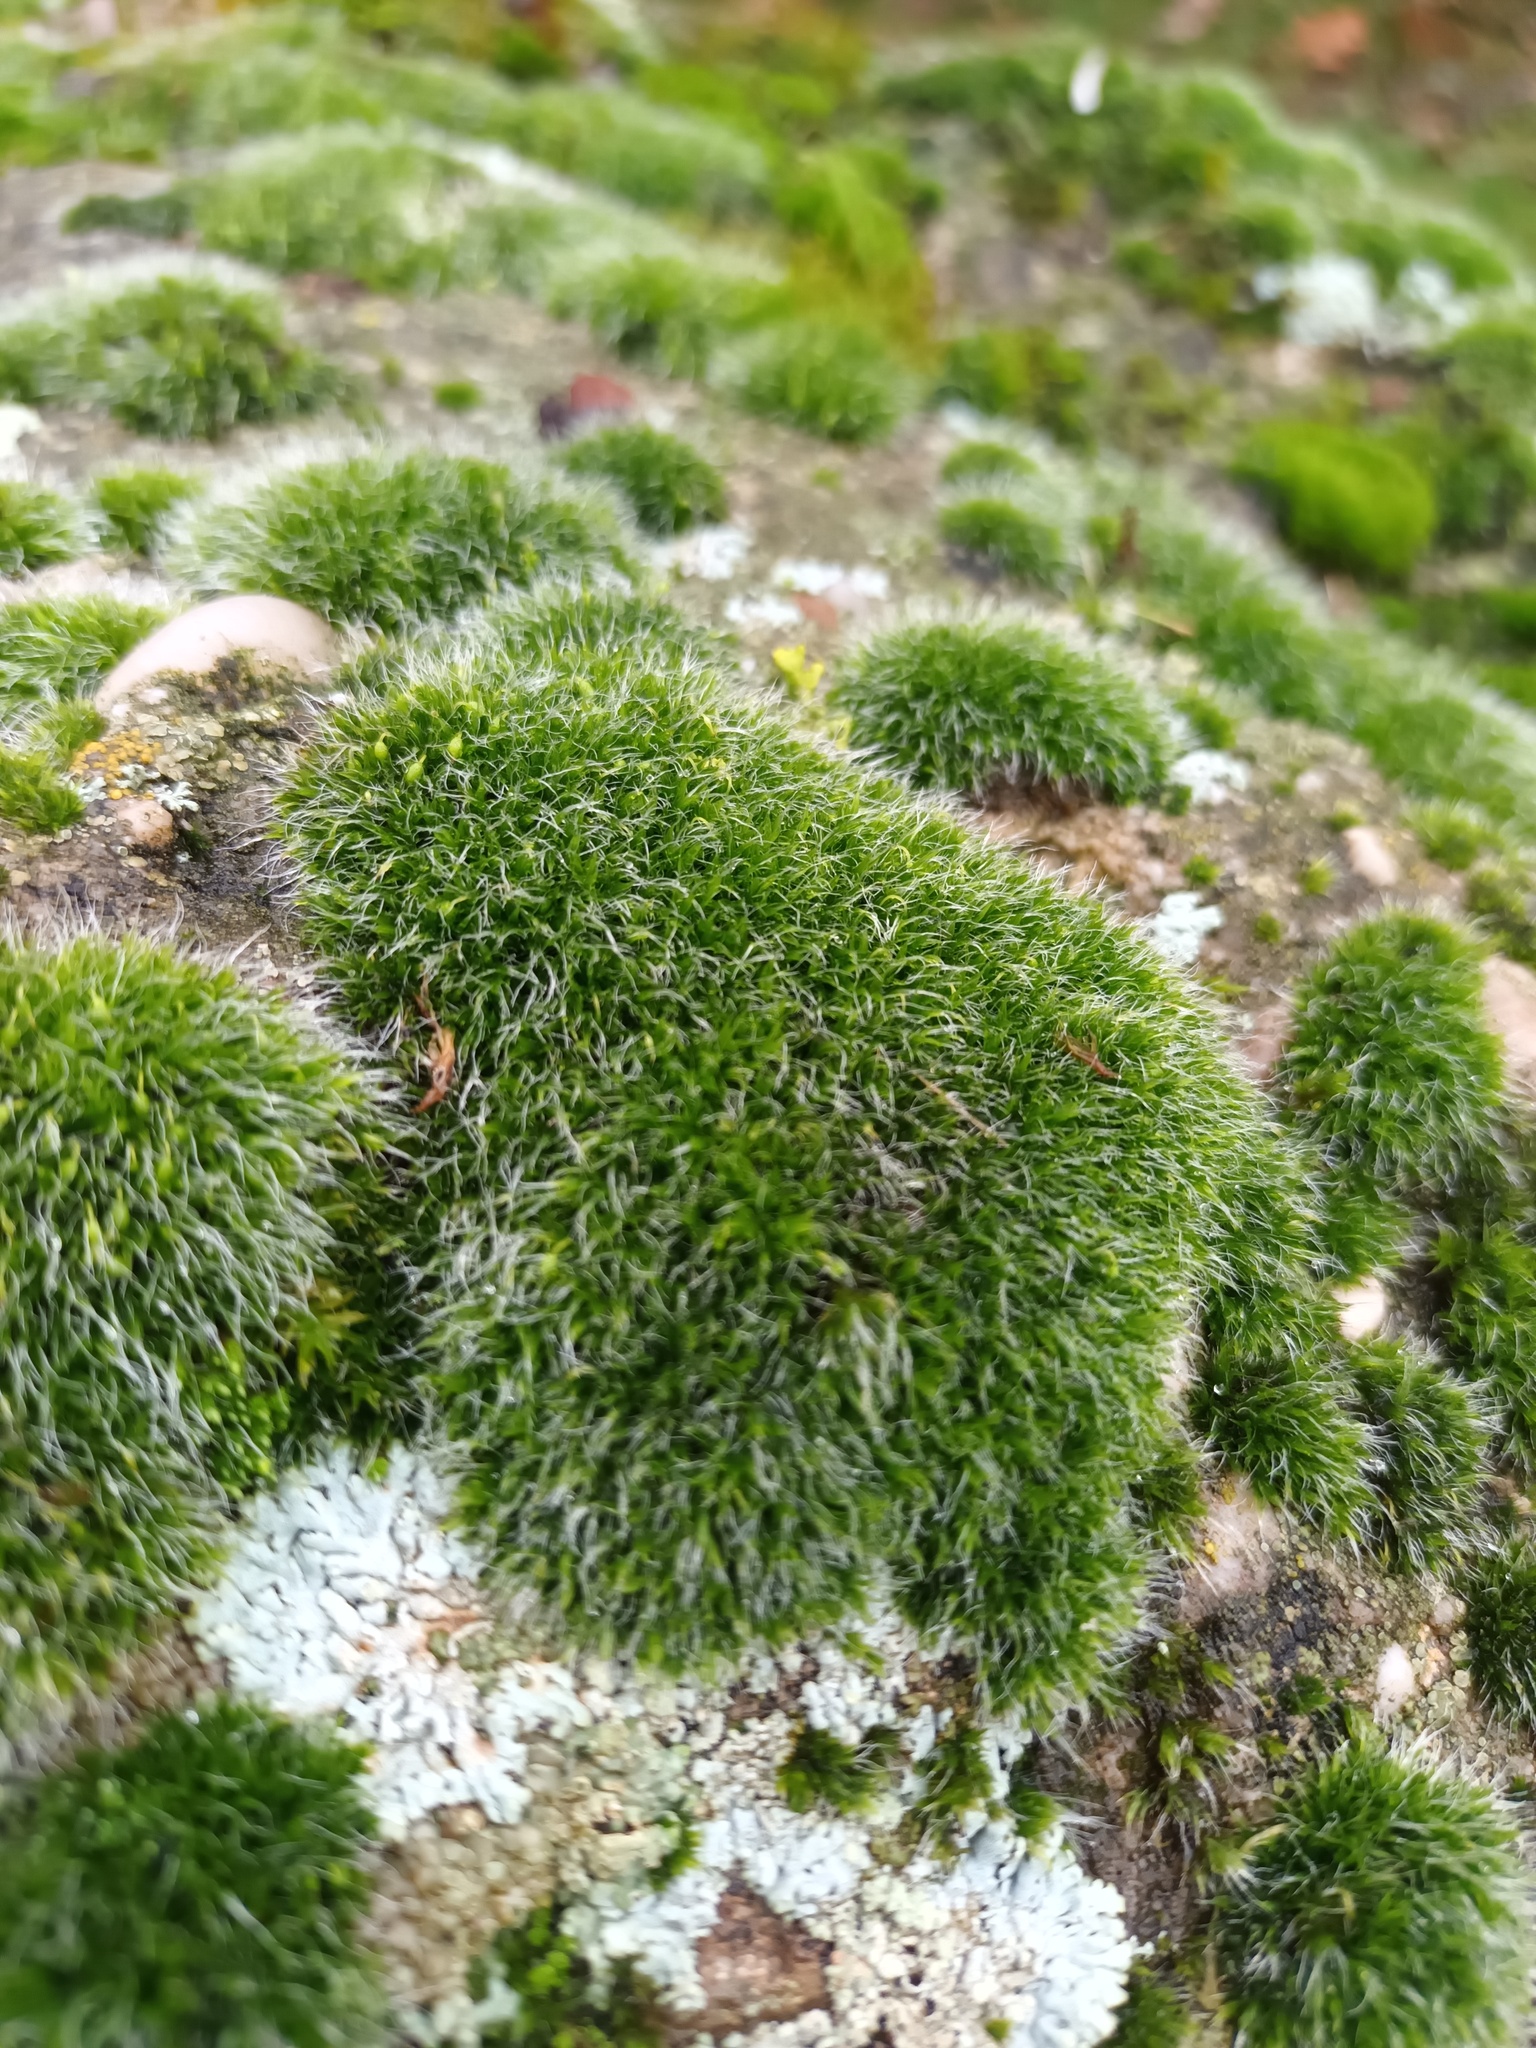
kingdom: Plantae
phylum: Bryophyta
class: Bryopsida
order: Grimmiales
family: Grimmiaceae
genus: Grimmia
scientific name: Grimmia pulvinata
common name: Grey-cushioned grimmia
